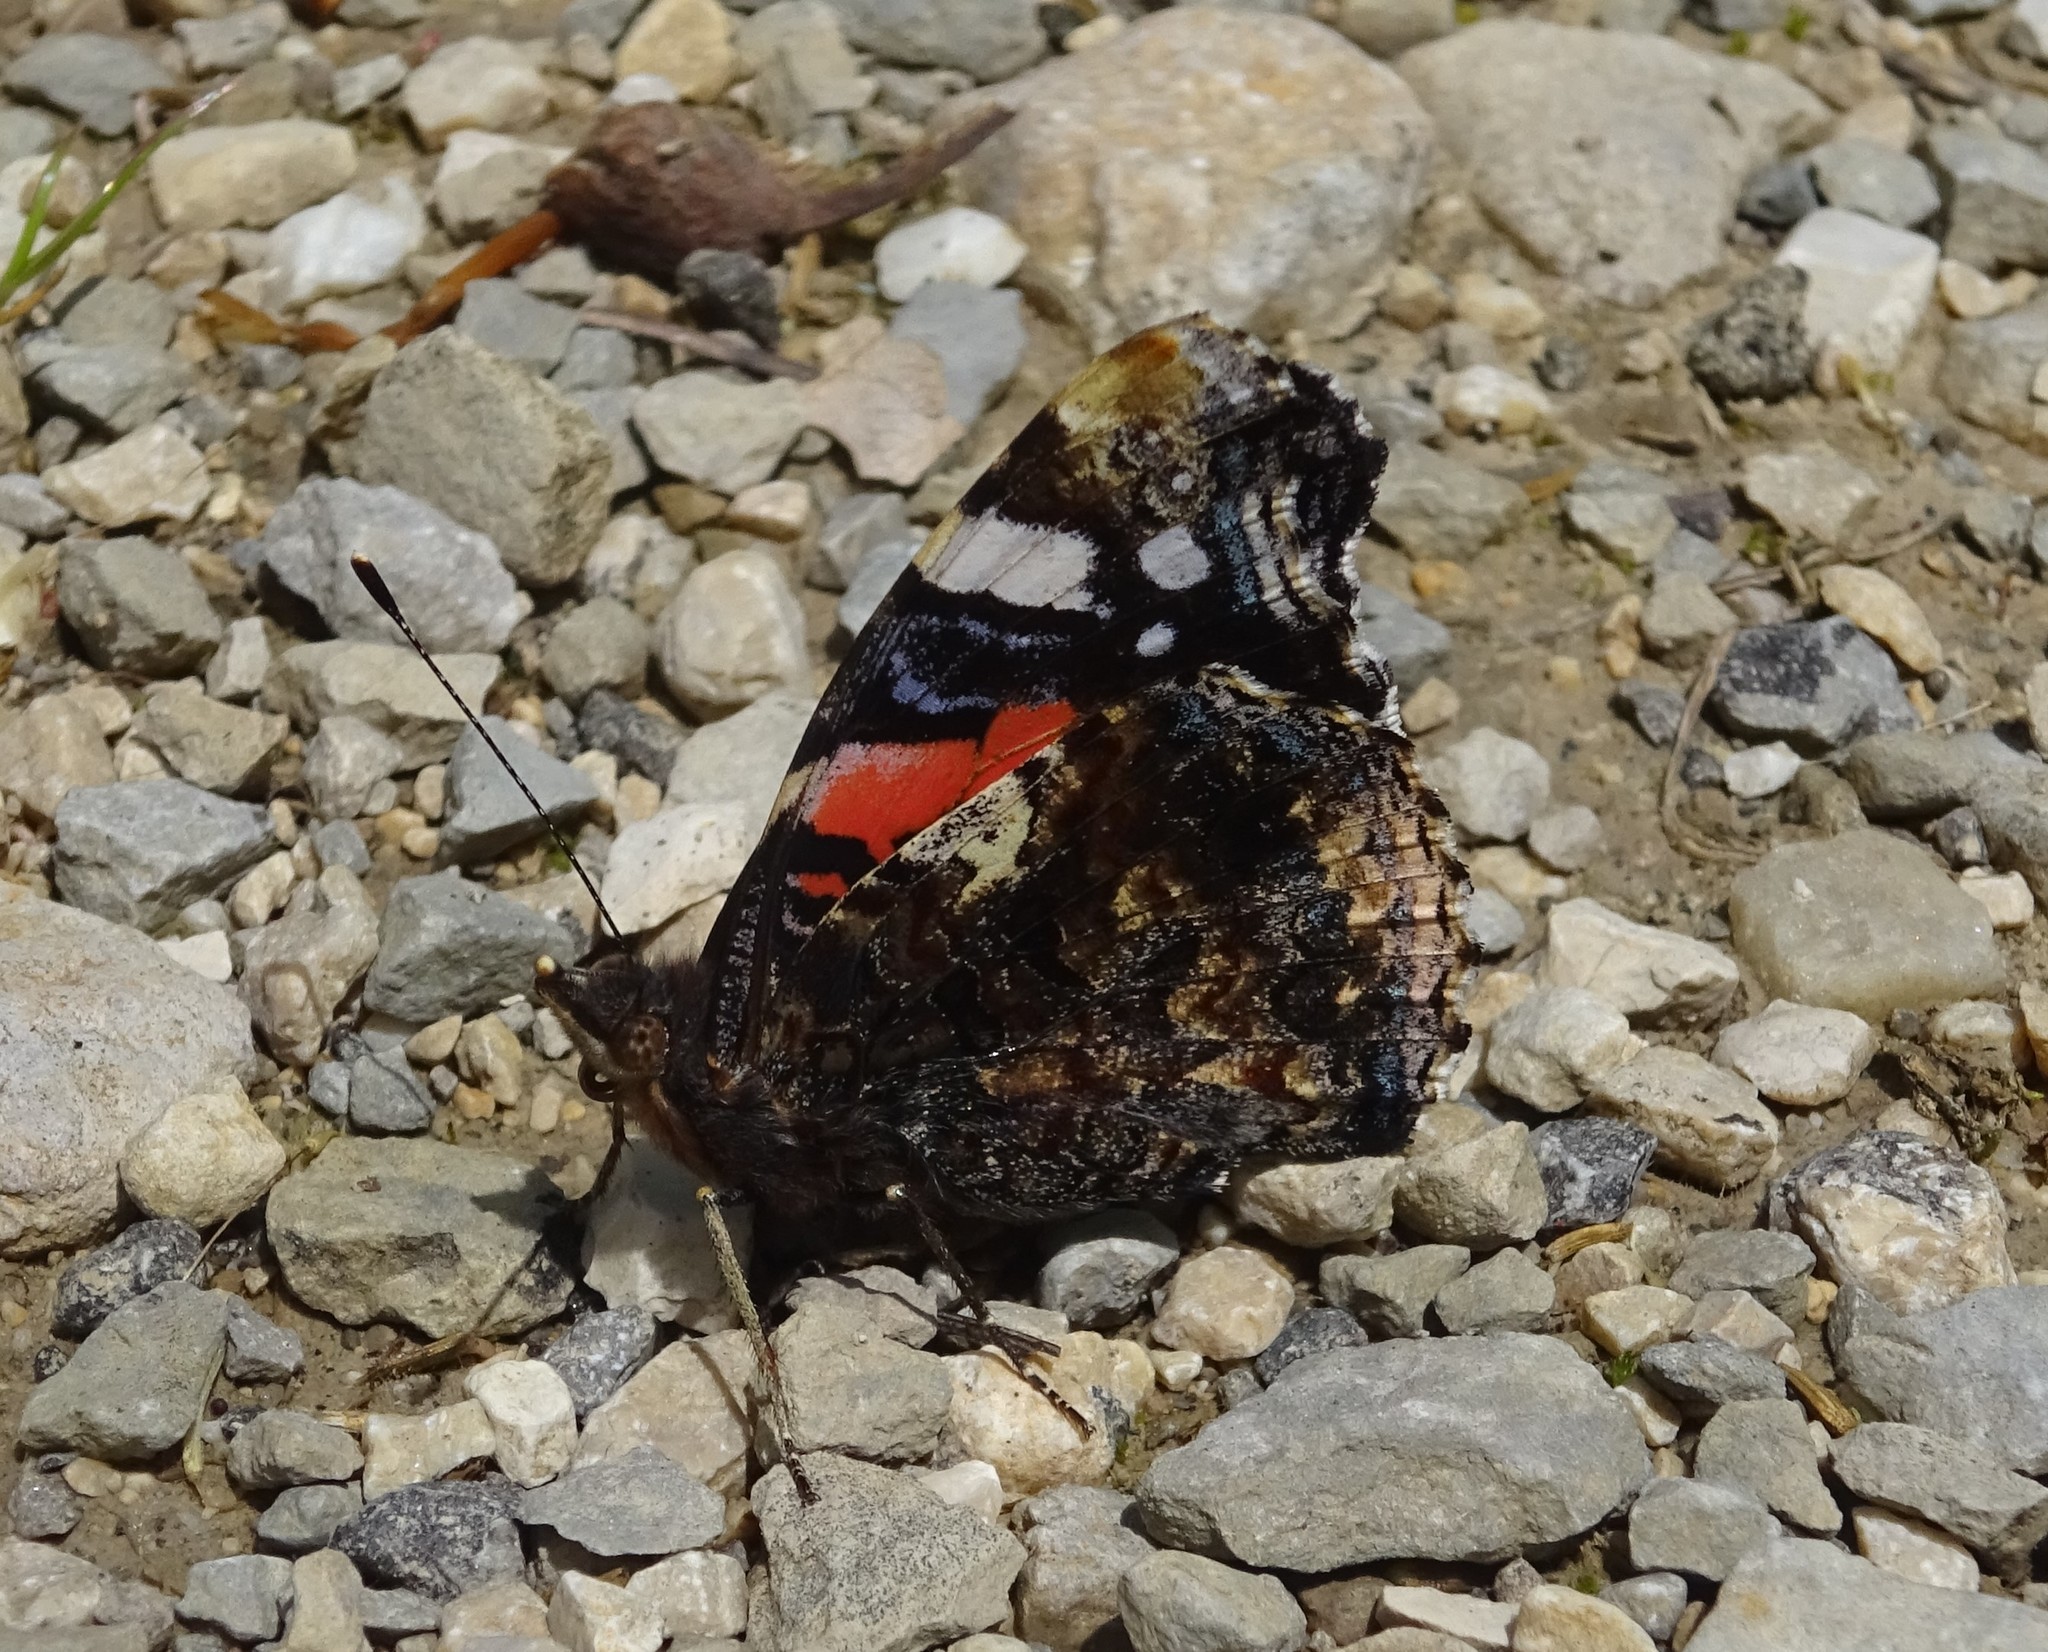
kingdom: Animalia
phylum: Arthropoda
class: Insecta
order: Lepidoptera
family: Nymphalidae
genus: Vanessa
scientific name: Vanessa atalanta
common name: Red admiral
